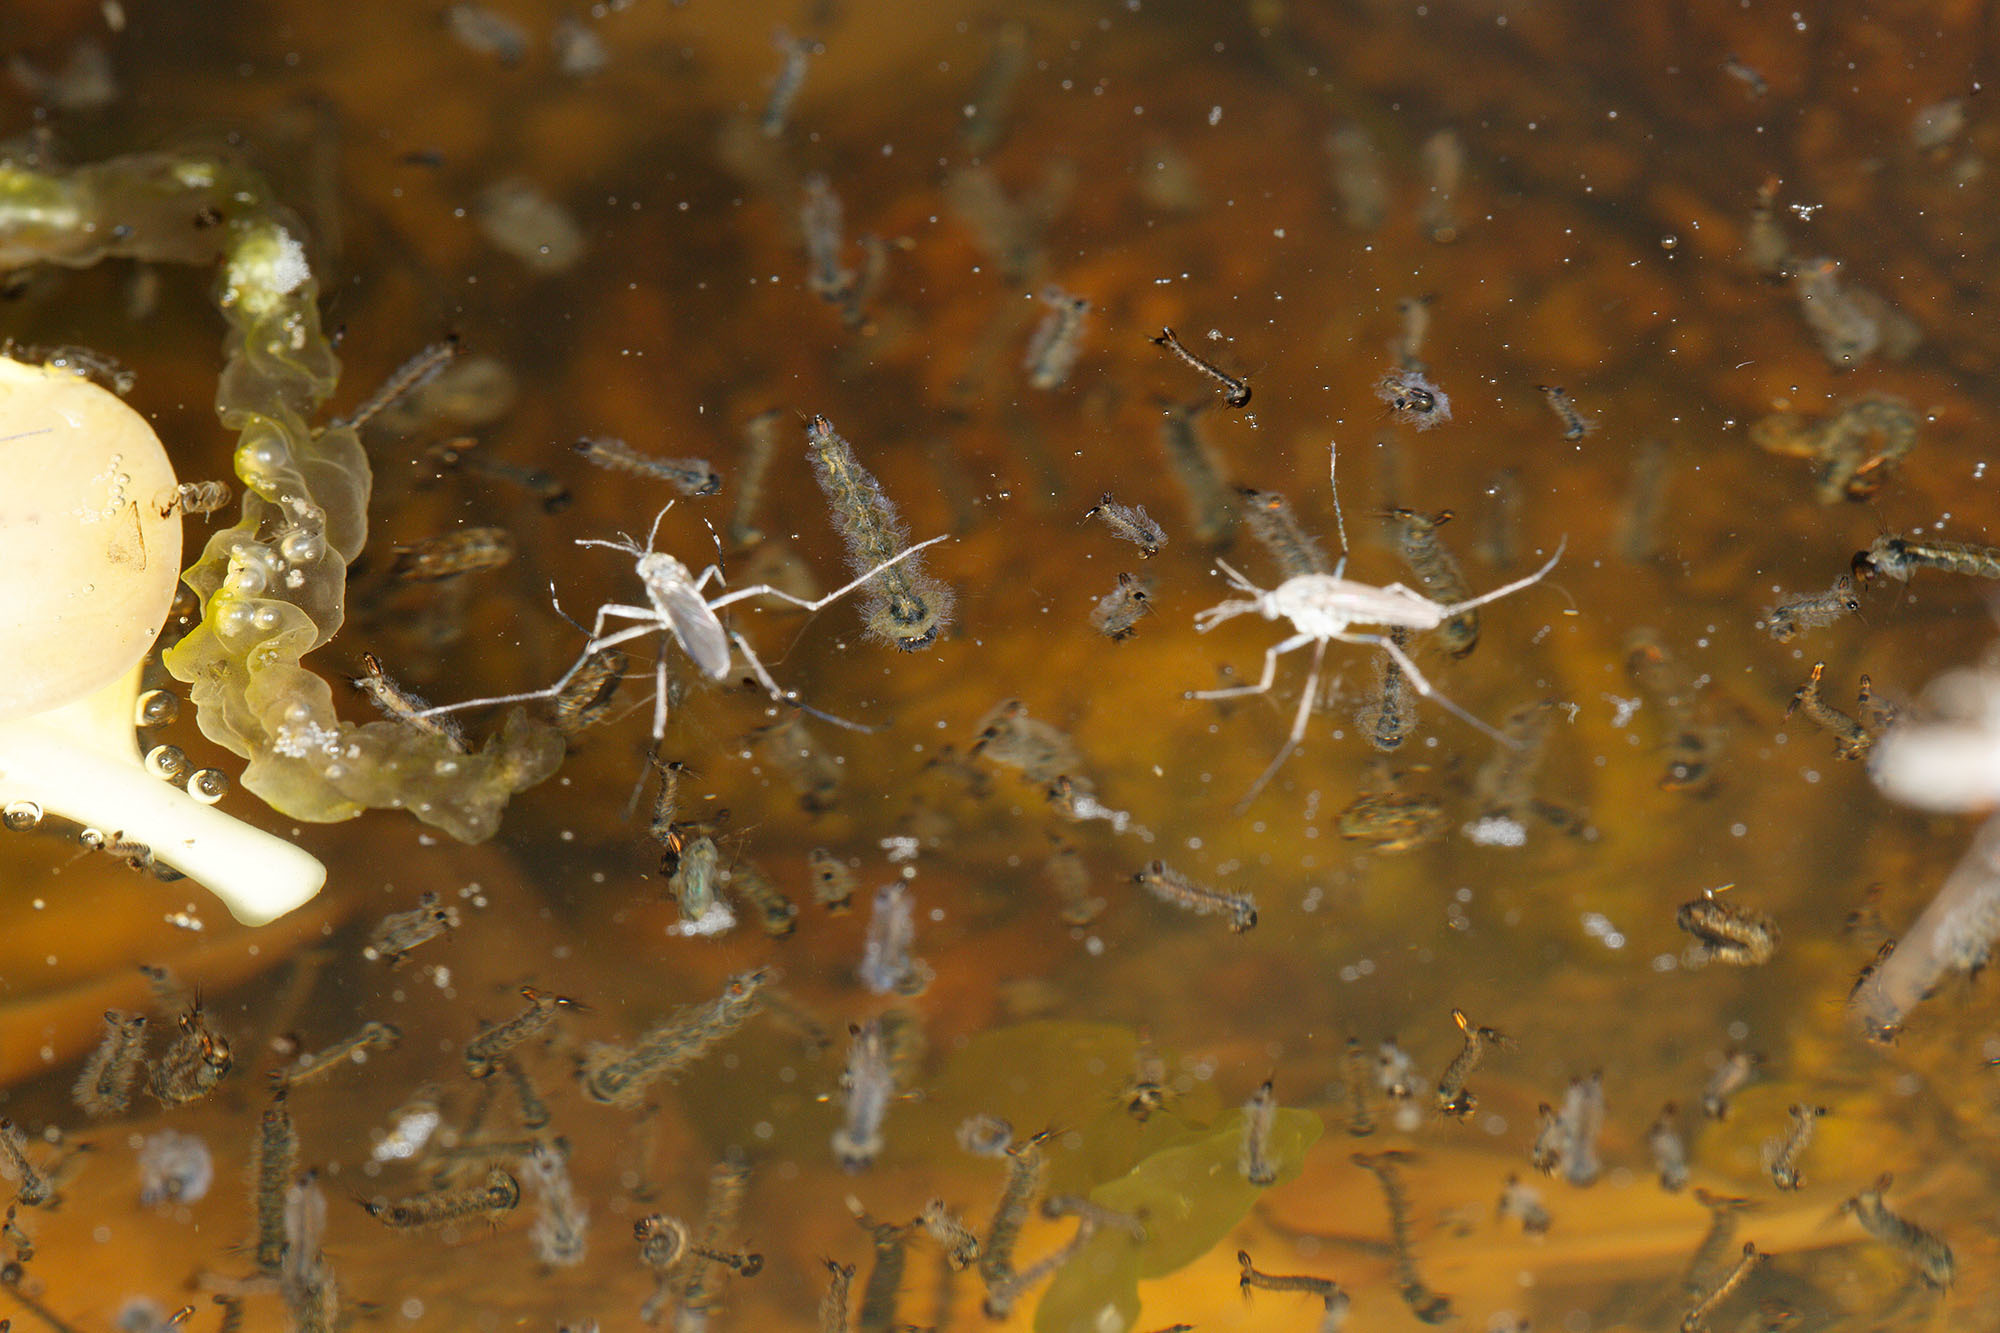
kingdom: Animalia
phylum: Arthropoda
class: Insecta
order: Diptera
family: Culicidae
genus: Opifex
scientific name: Opifex fuscus
